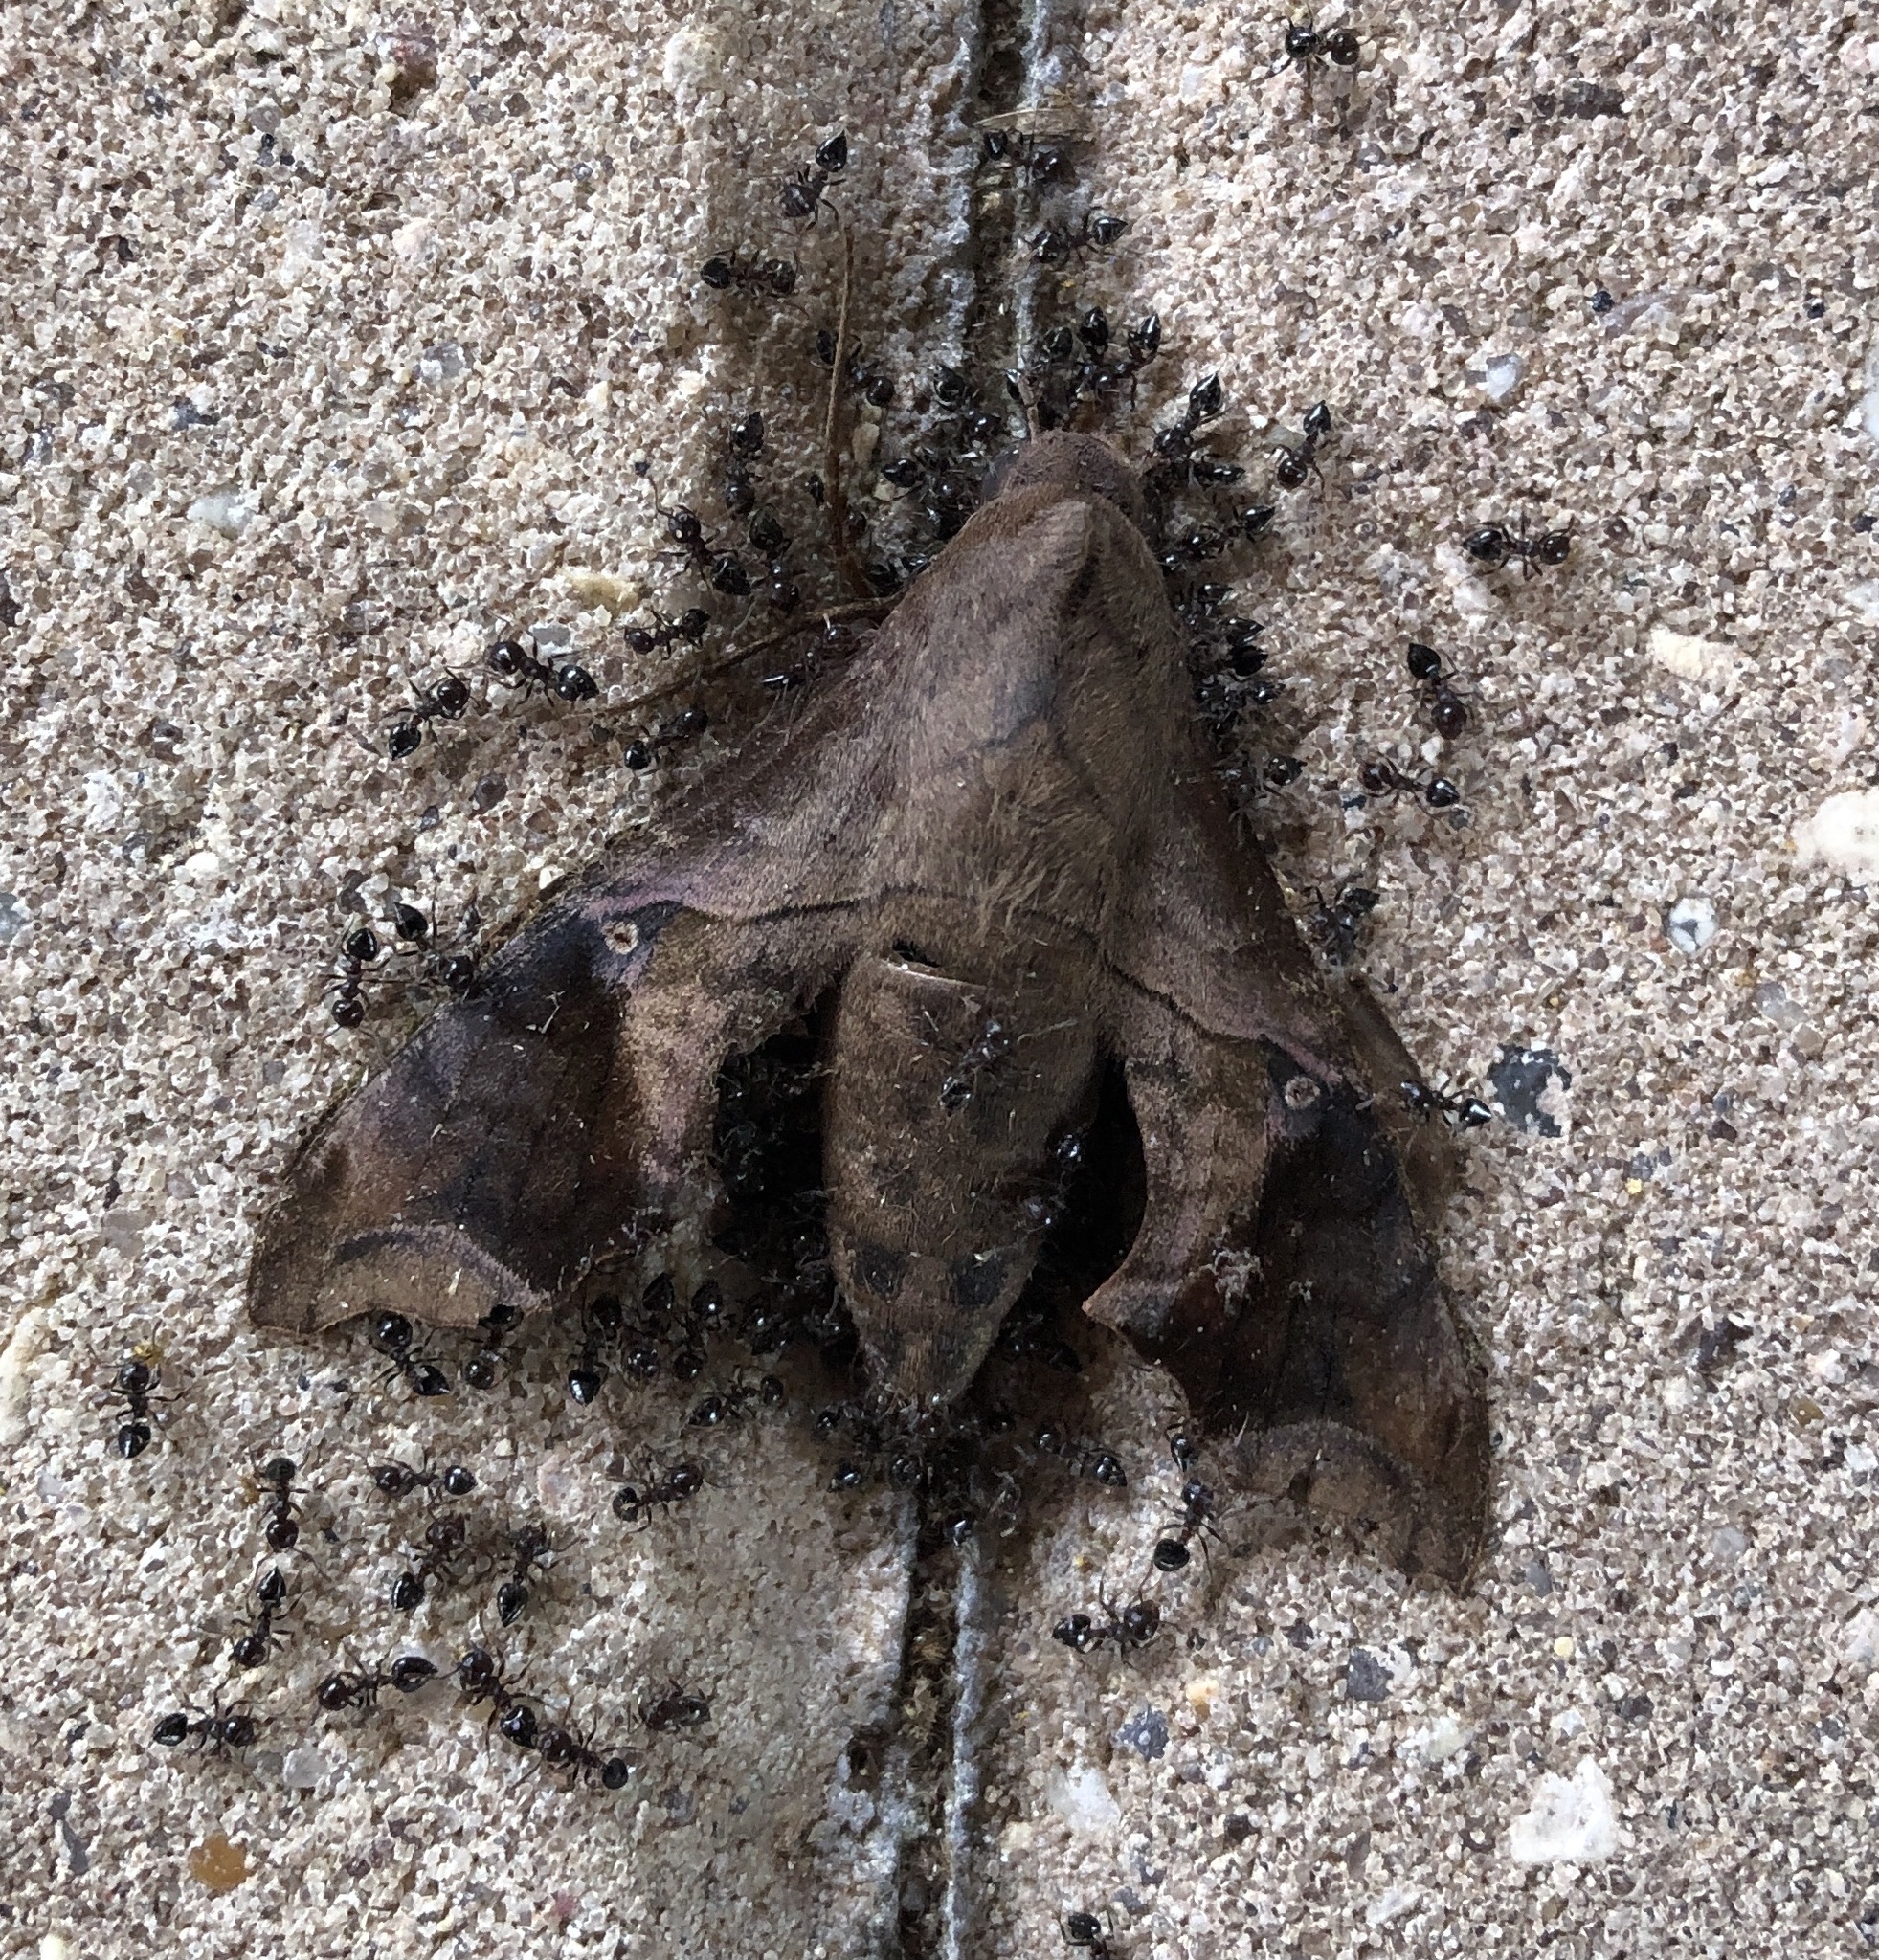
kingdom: Animalia
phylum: Arthropoda
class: Insecta
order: Lepidoptera
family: Sphingidae
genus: Enyo
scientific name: Enyo lugubris
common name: Mournful sphinx
